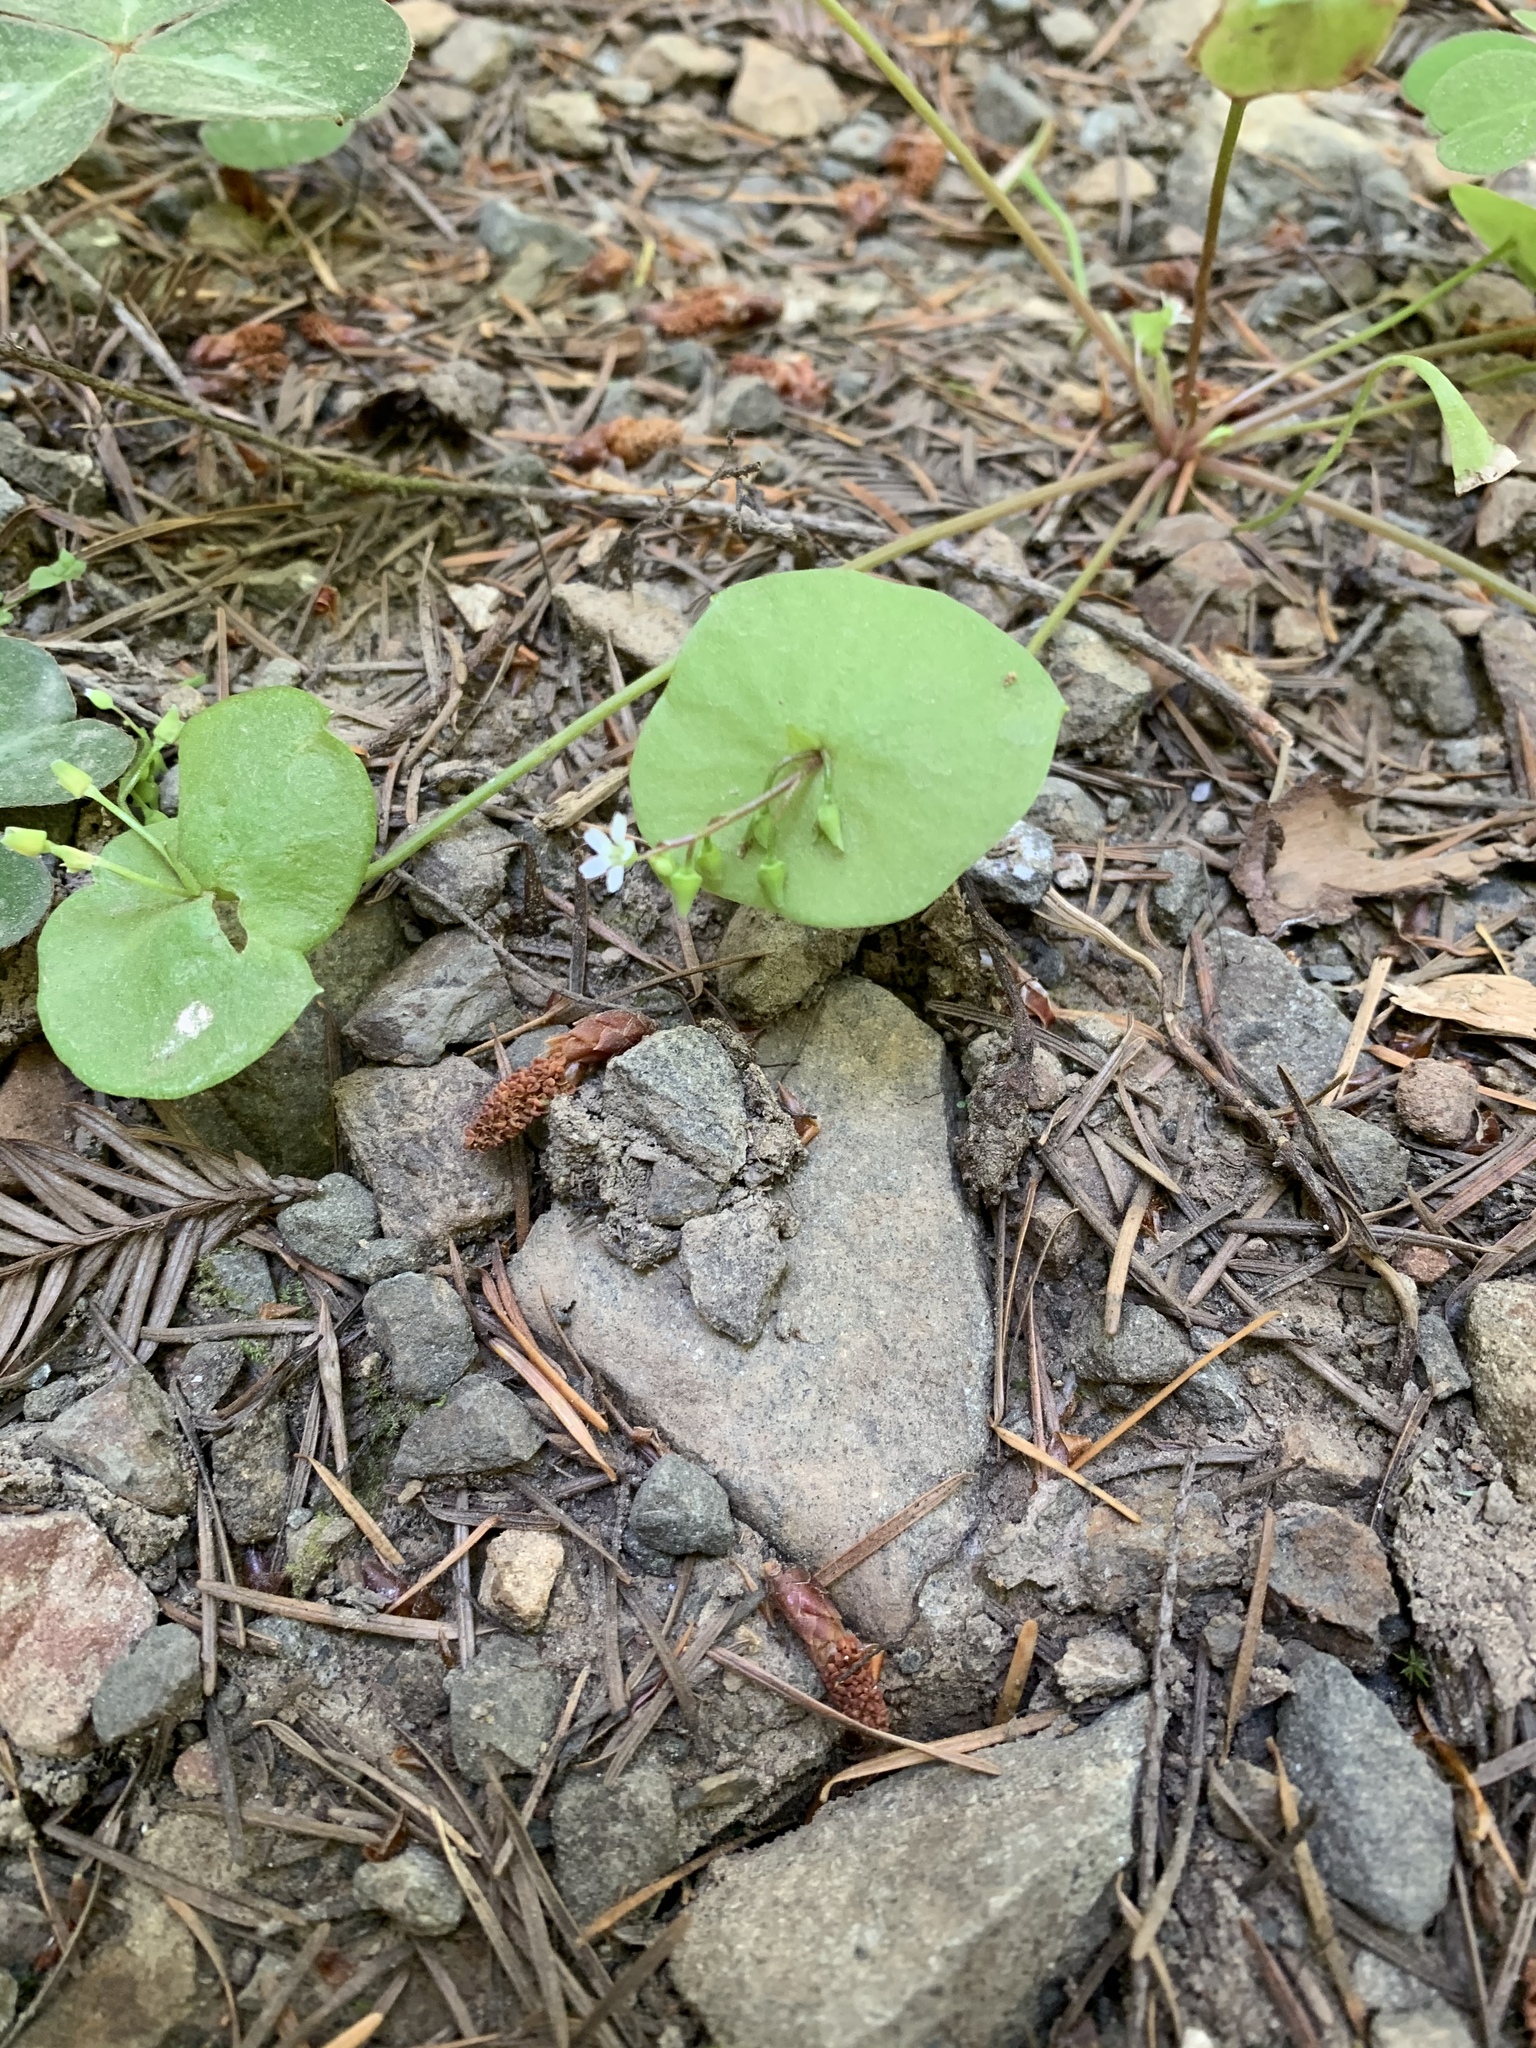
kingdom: Plantae
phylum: Tracheophyta
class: Magnoliopsida
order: Caryophyllales
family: Montiaceae
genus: Claytonia
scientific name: Claytonia perfoliata
